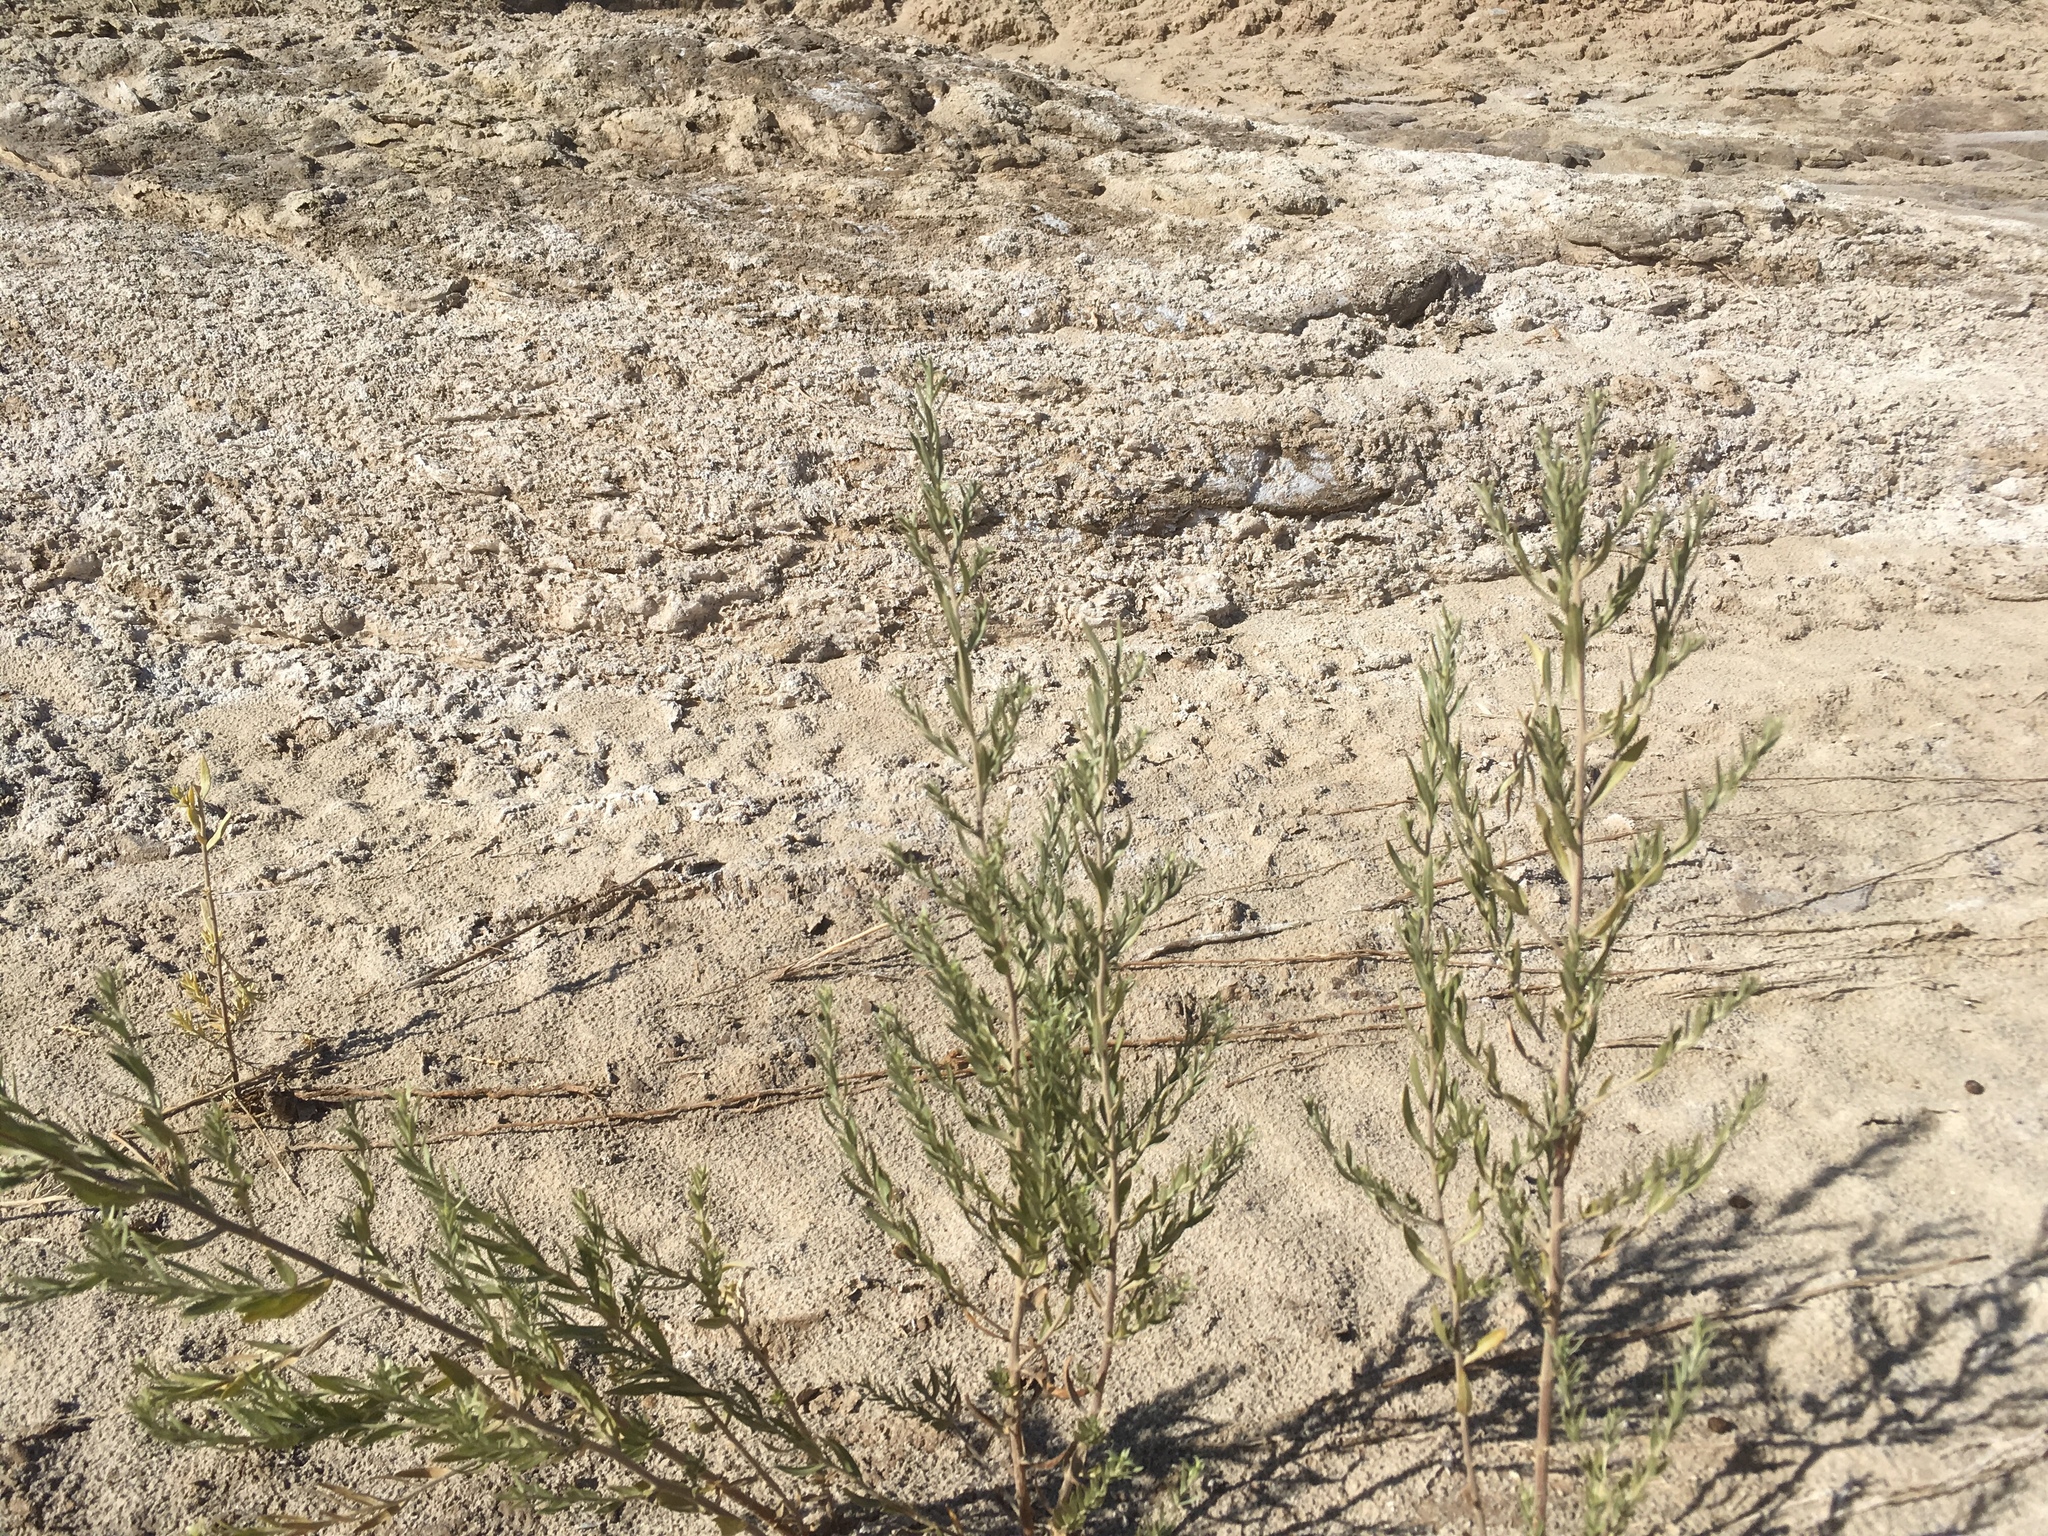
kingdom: Plantae
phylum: Tracheophyta
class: Magnoliopsida
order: Asterales
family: Asteraceae
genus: Pluchea
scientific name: Pluchea sericea
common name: Arrow-weed
